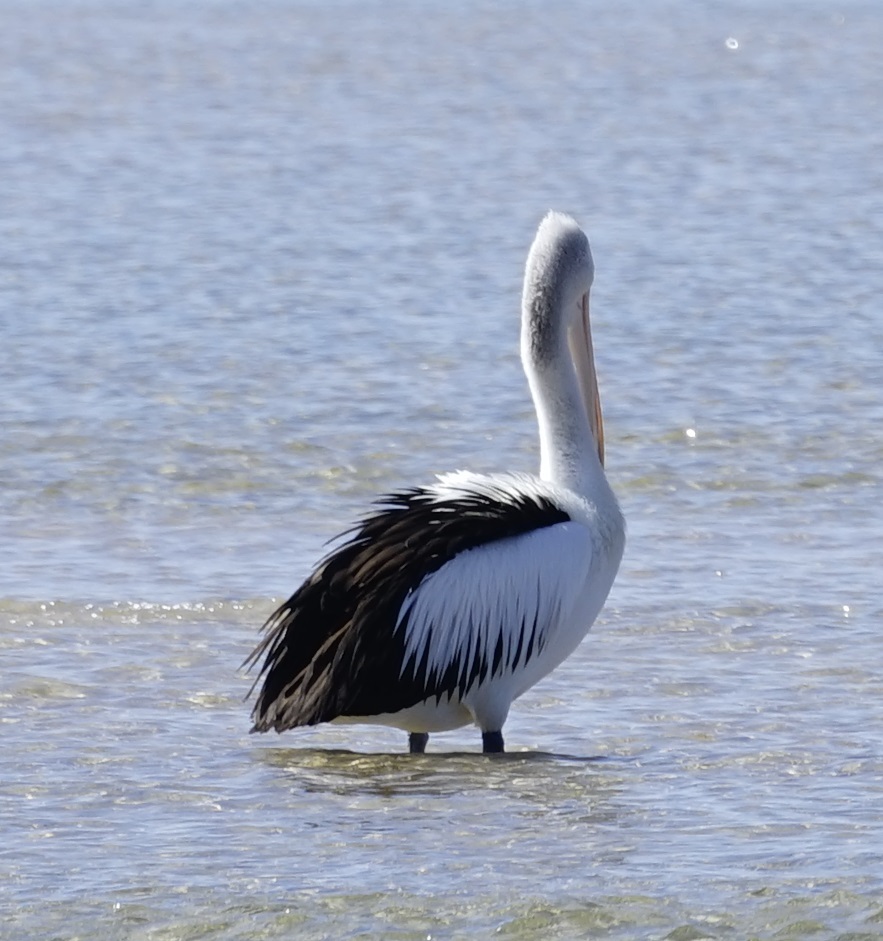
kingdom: Animalia
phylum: Chordata
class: Aves
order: Pelecaniformes
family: Pelecanidae
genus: Pelecanus
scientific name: Pelecanus conspicillatus
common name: Australian pelican
